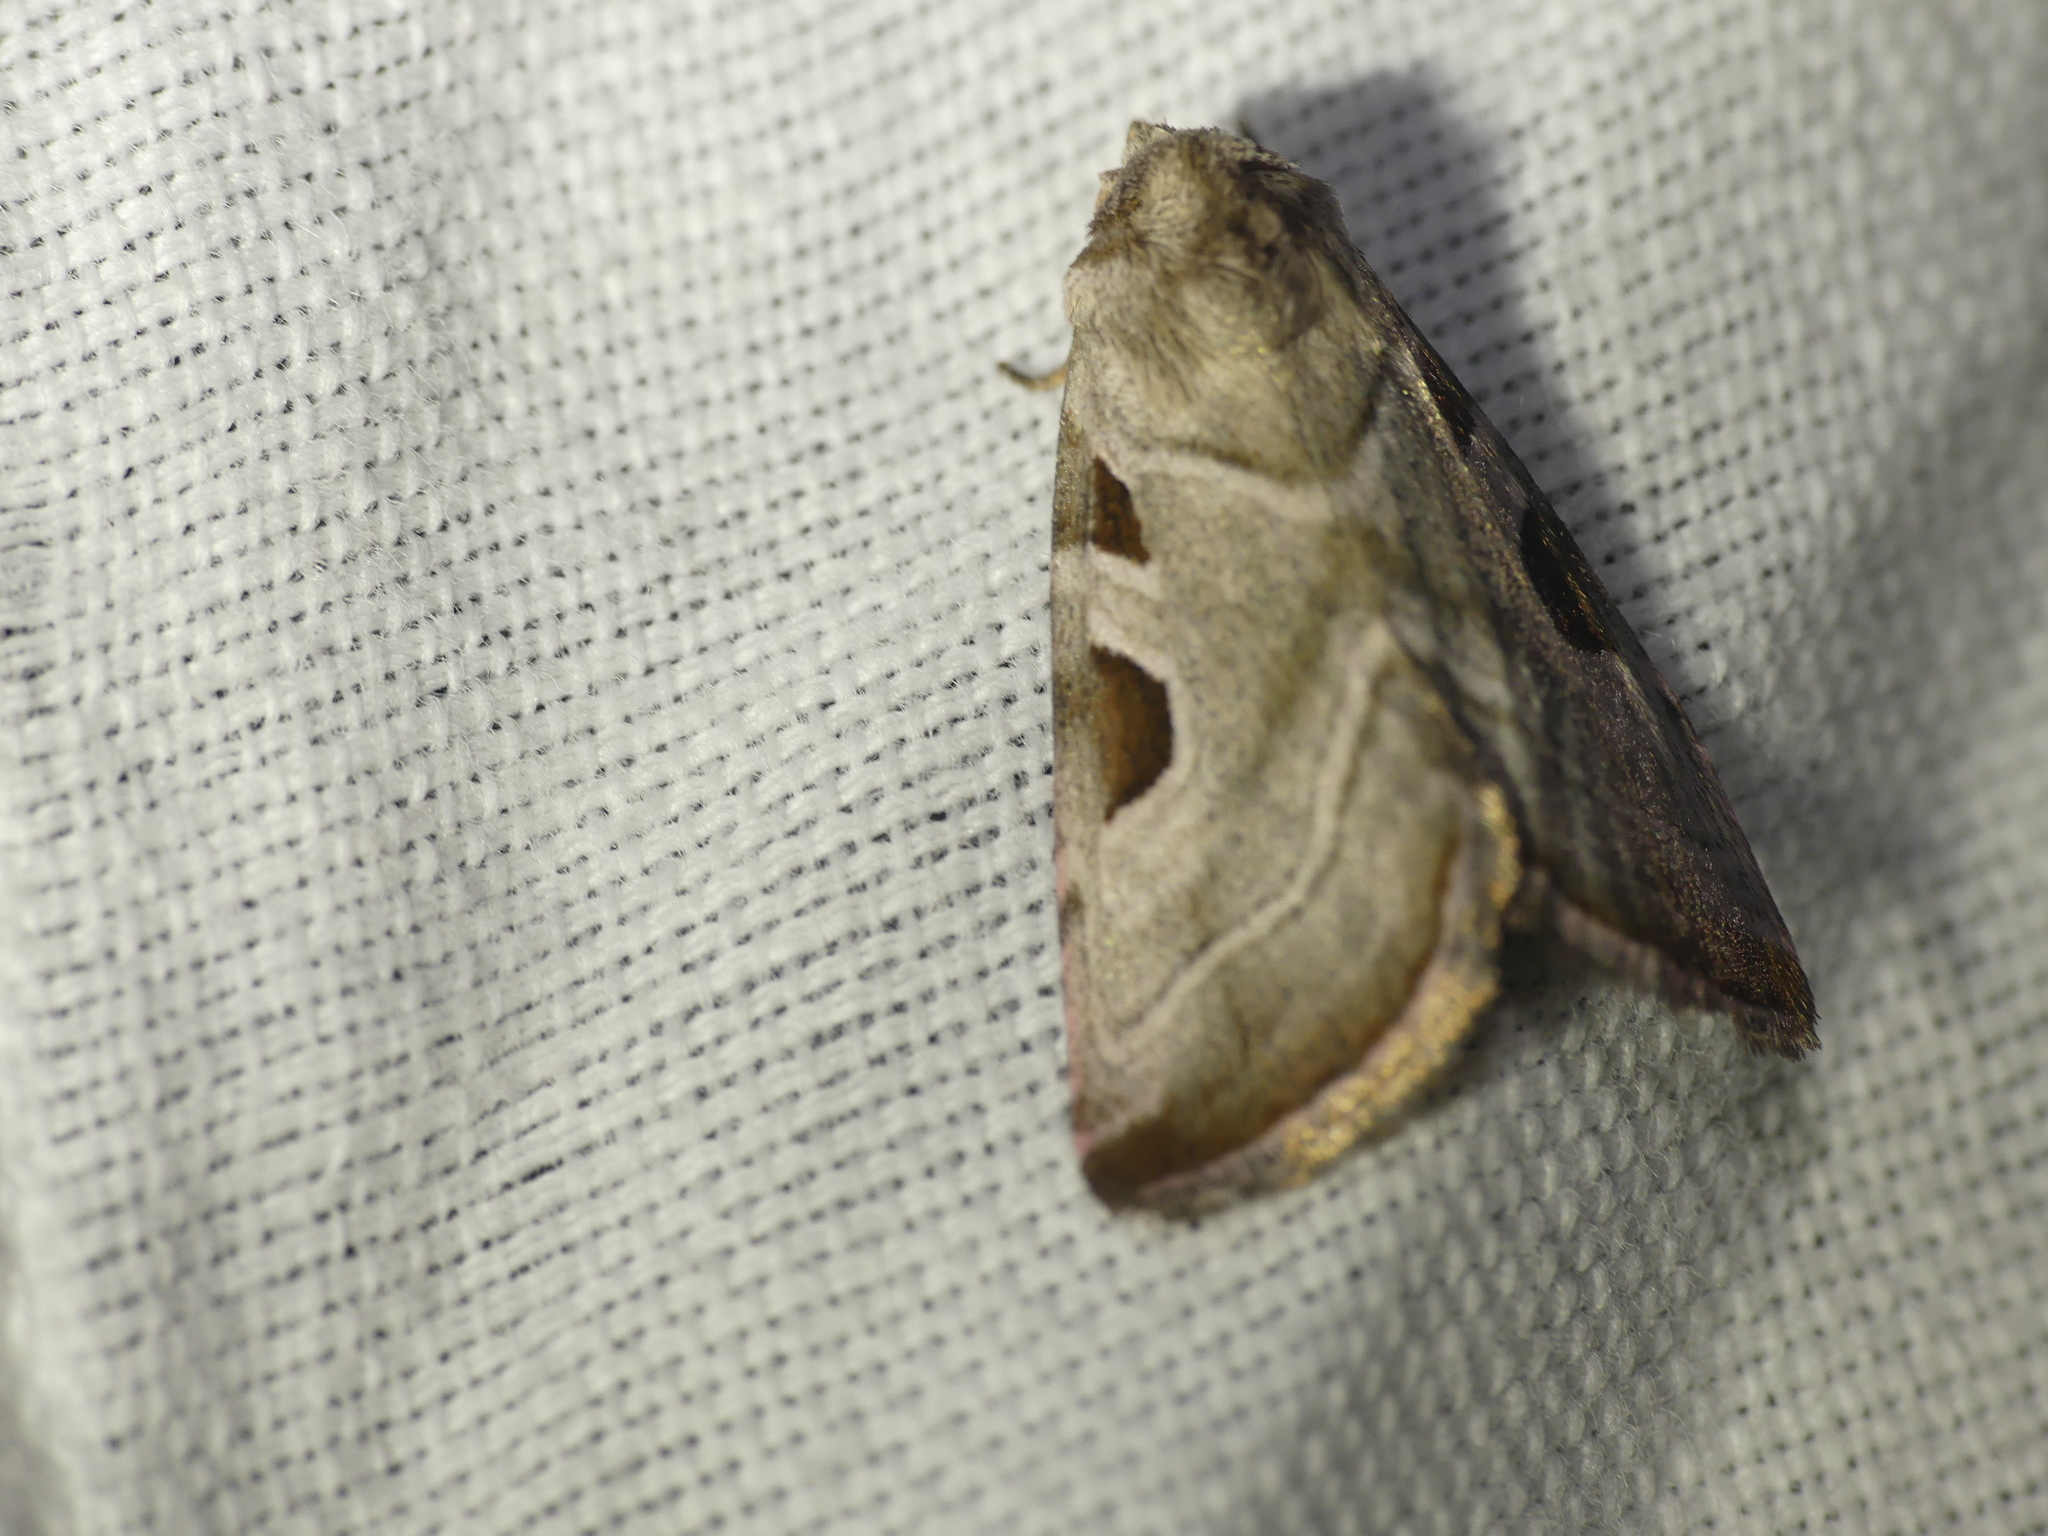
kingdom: Animalia
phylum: Arthropoda
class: Insecta
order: Lepidoptera
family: Noctuidae
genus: Eucarta
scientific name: Eucarta virgo
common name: Silvery gem
